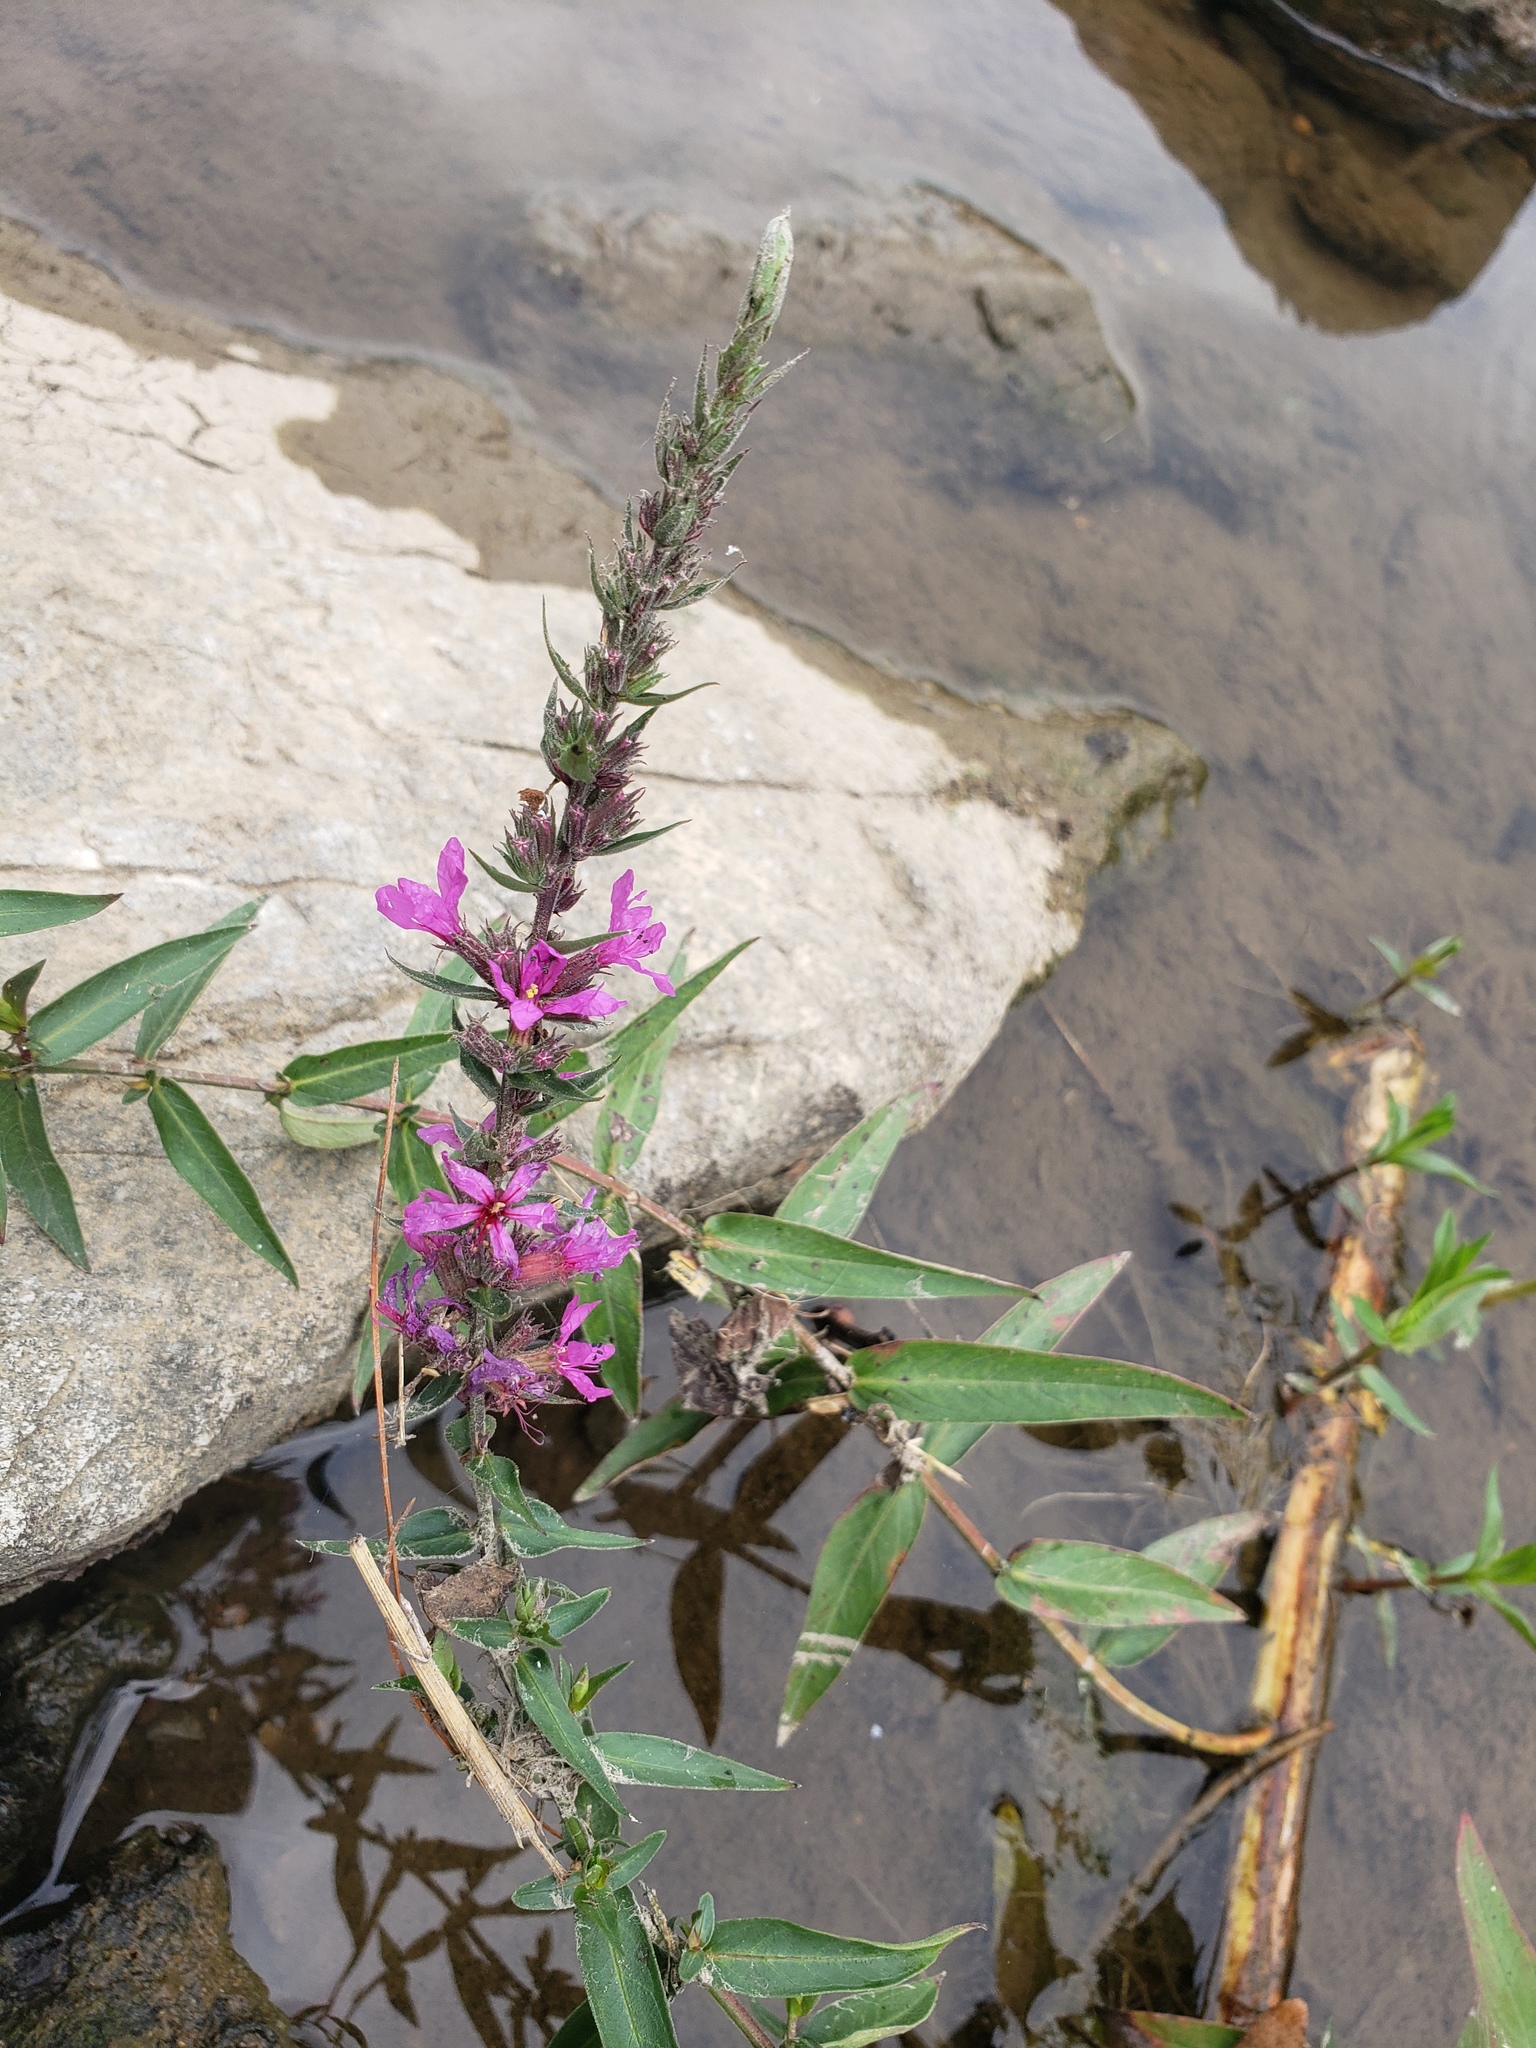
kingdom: Plantae
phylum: Tracheophyta
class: Magnoliopsida
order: Myrtales
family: Lythraceae
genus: Lythrum
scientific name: Lythrum salicaria
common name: Purple loosestrife
